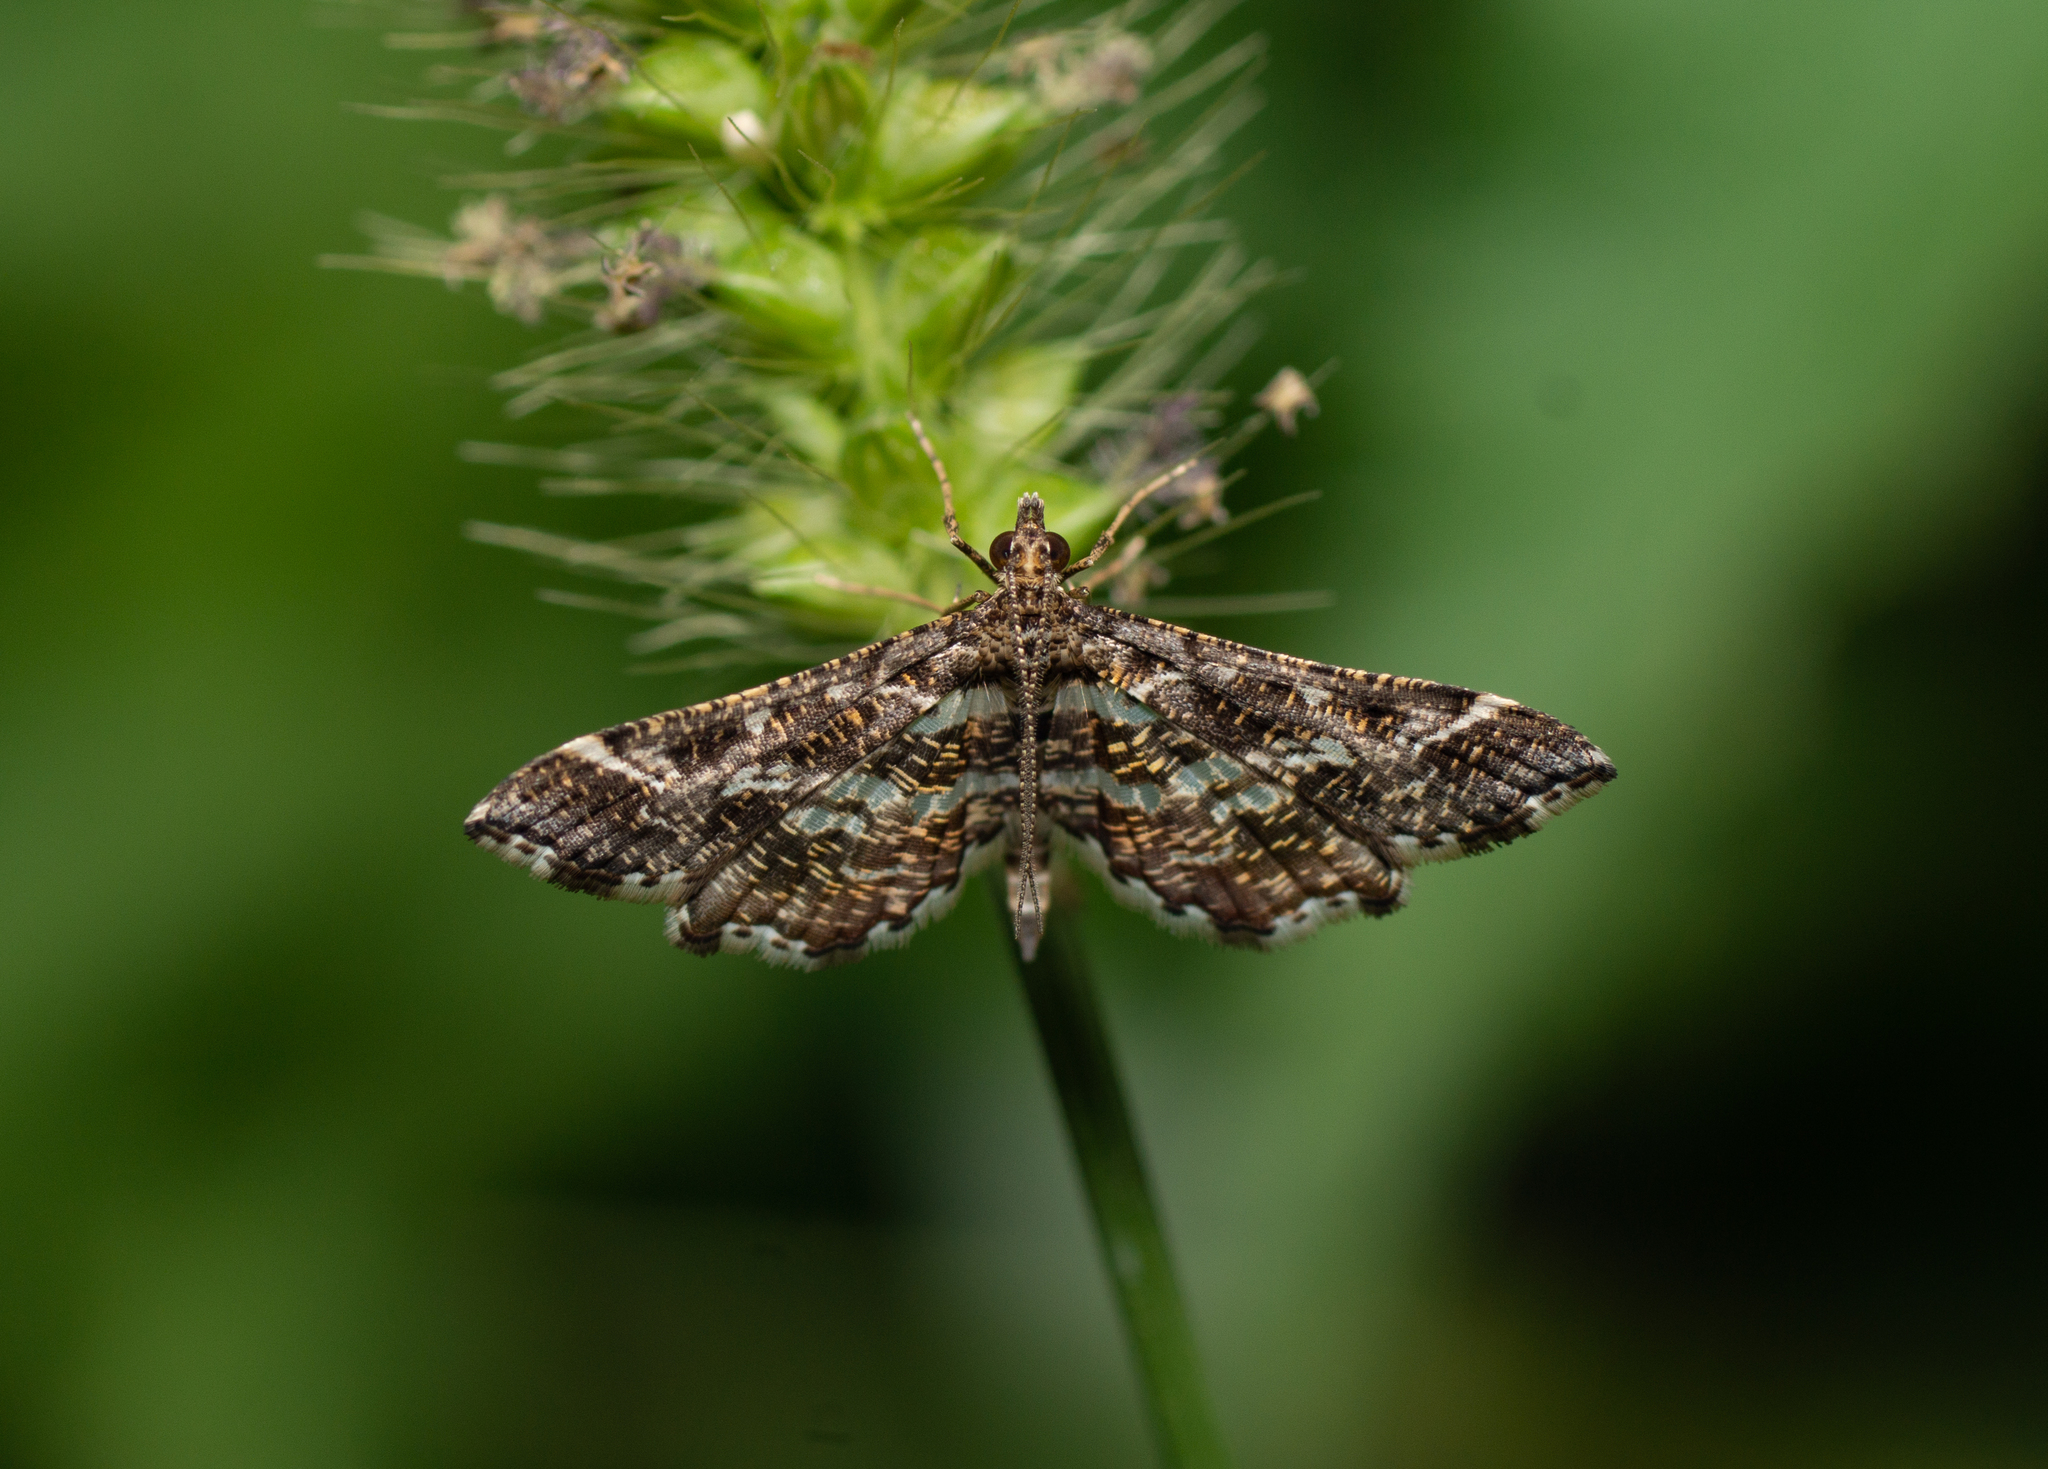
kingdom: Animalia
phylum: Arthropoda
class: Insecta
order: Lepidoptera
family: Crambidae
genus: Diasemiopsis
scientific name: Diasemiopsis ramburialis
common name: Vagrant china-mark
